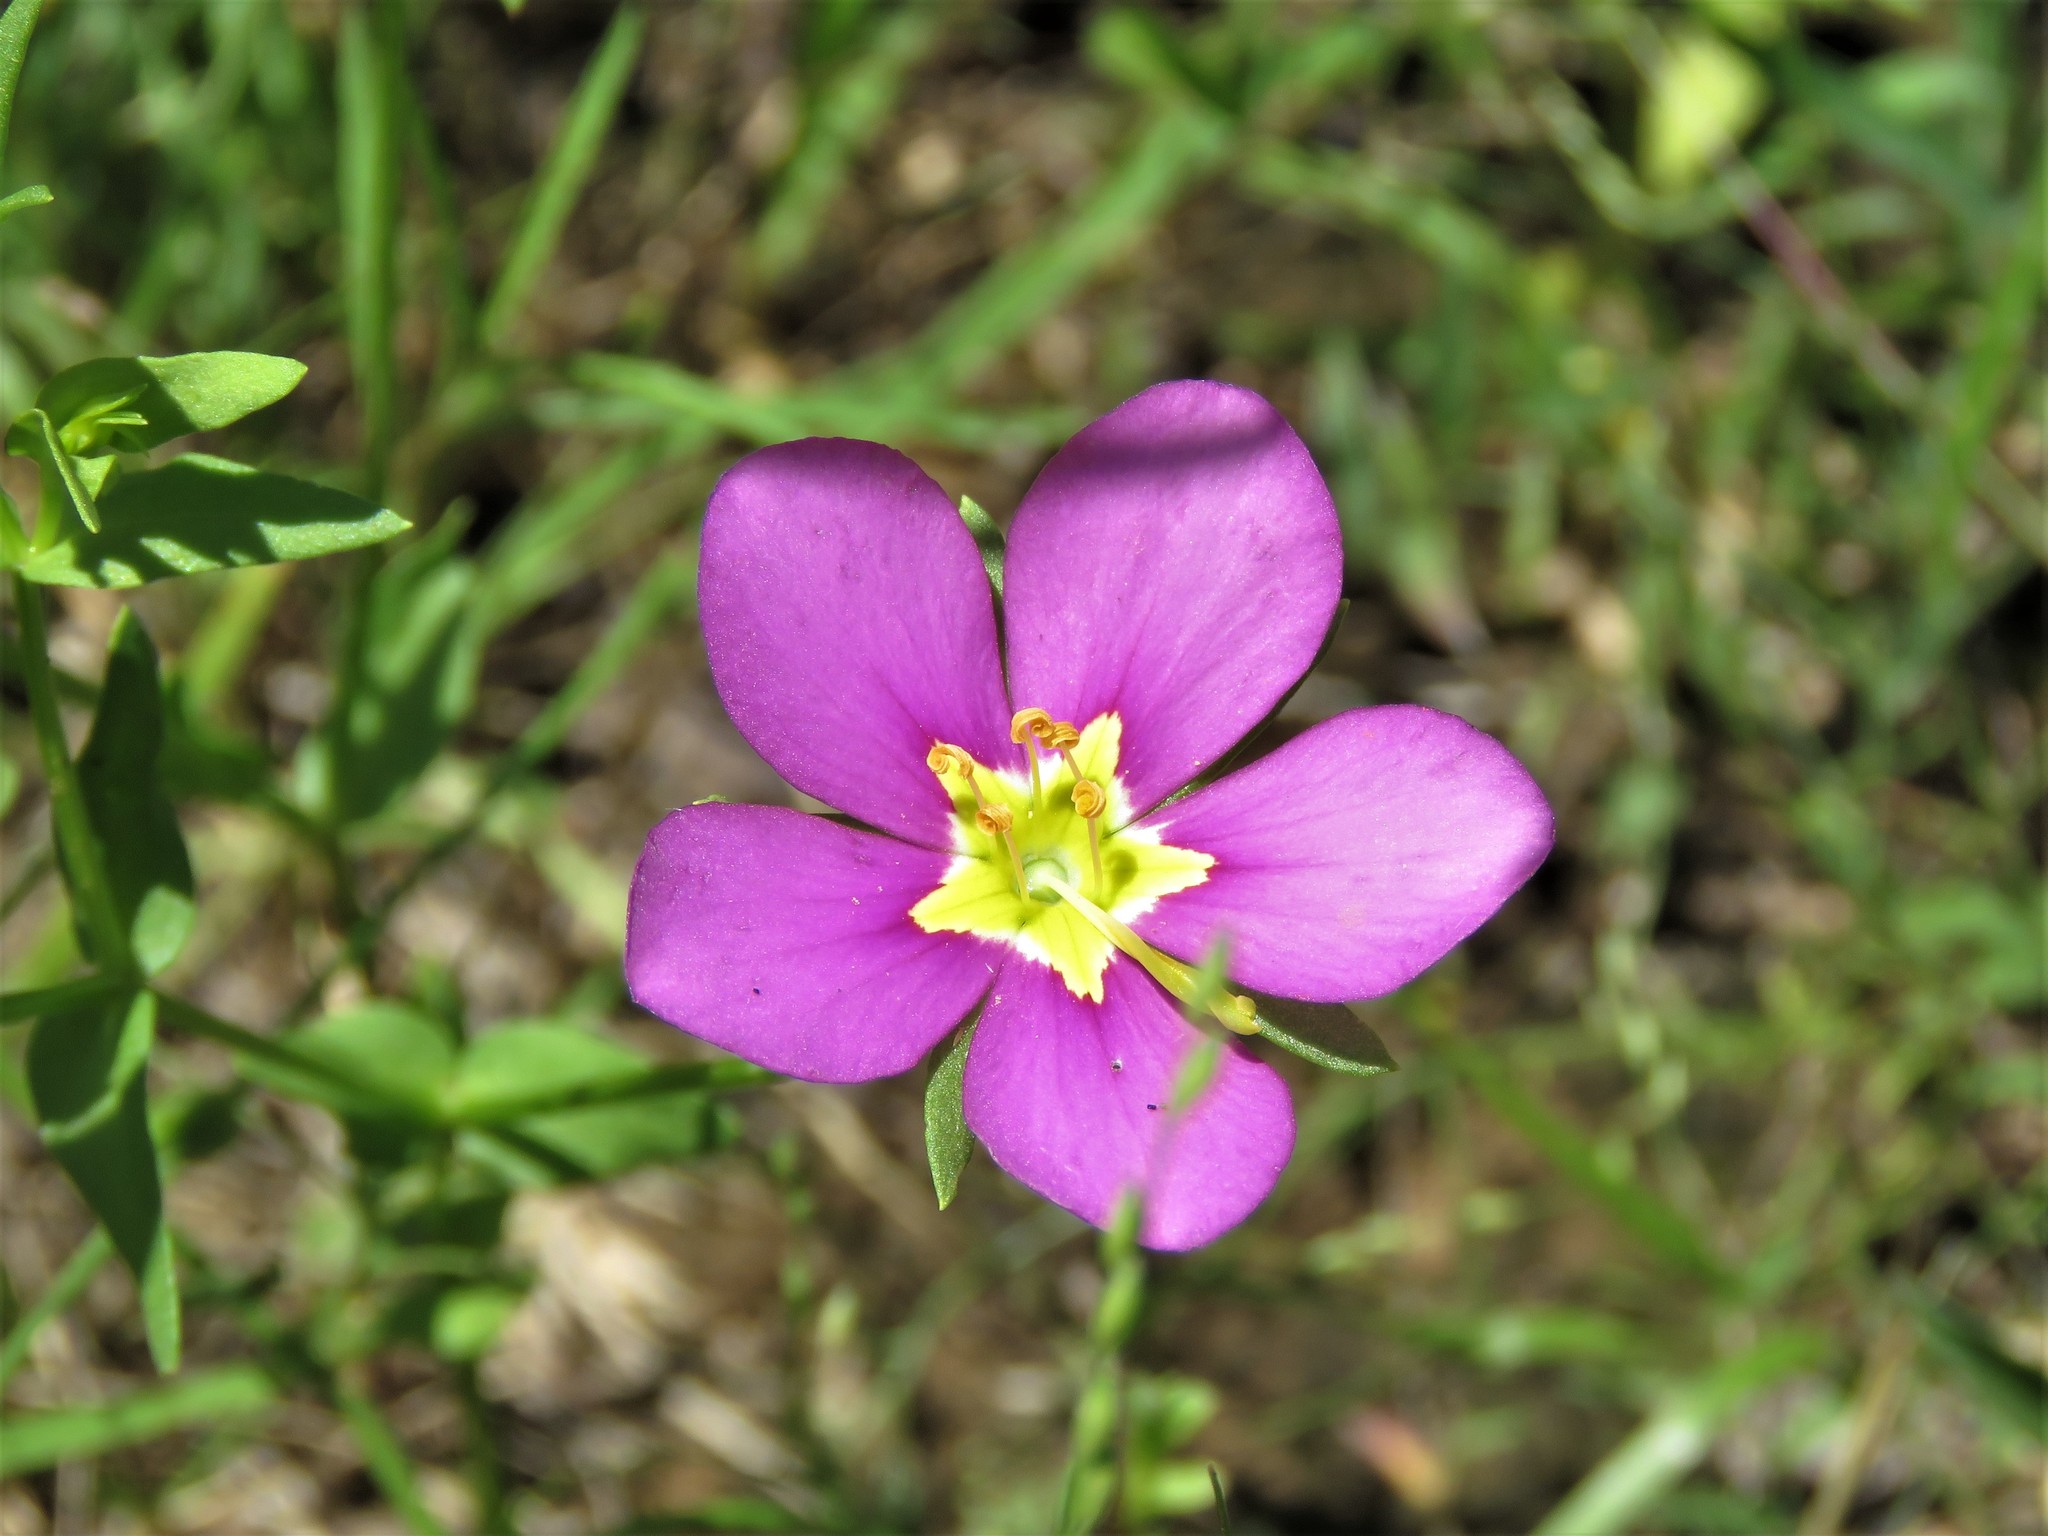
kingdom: Plantae
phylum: Tracheophyta
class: Magnoliopsida
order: Gentianales
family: Gentianaceae
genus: Sabatia
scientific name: Sabatia campestris
